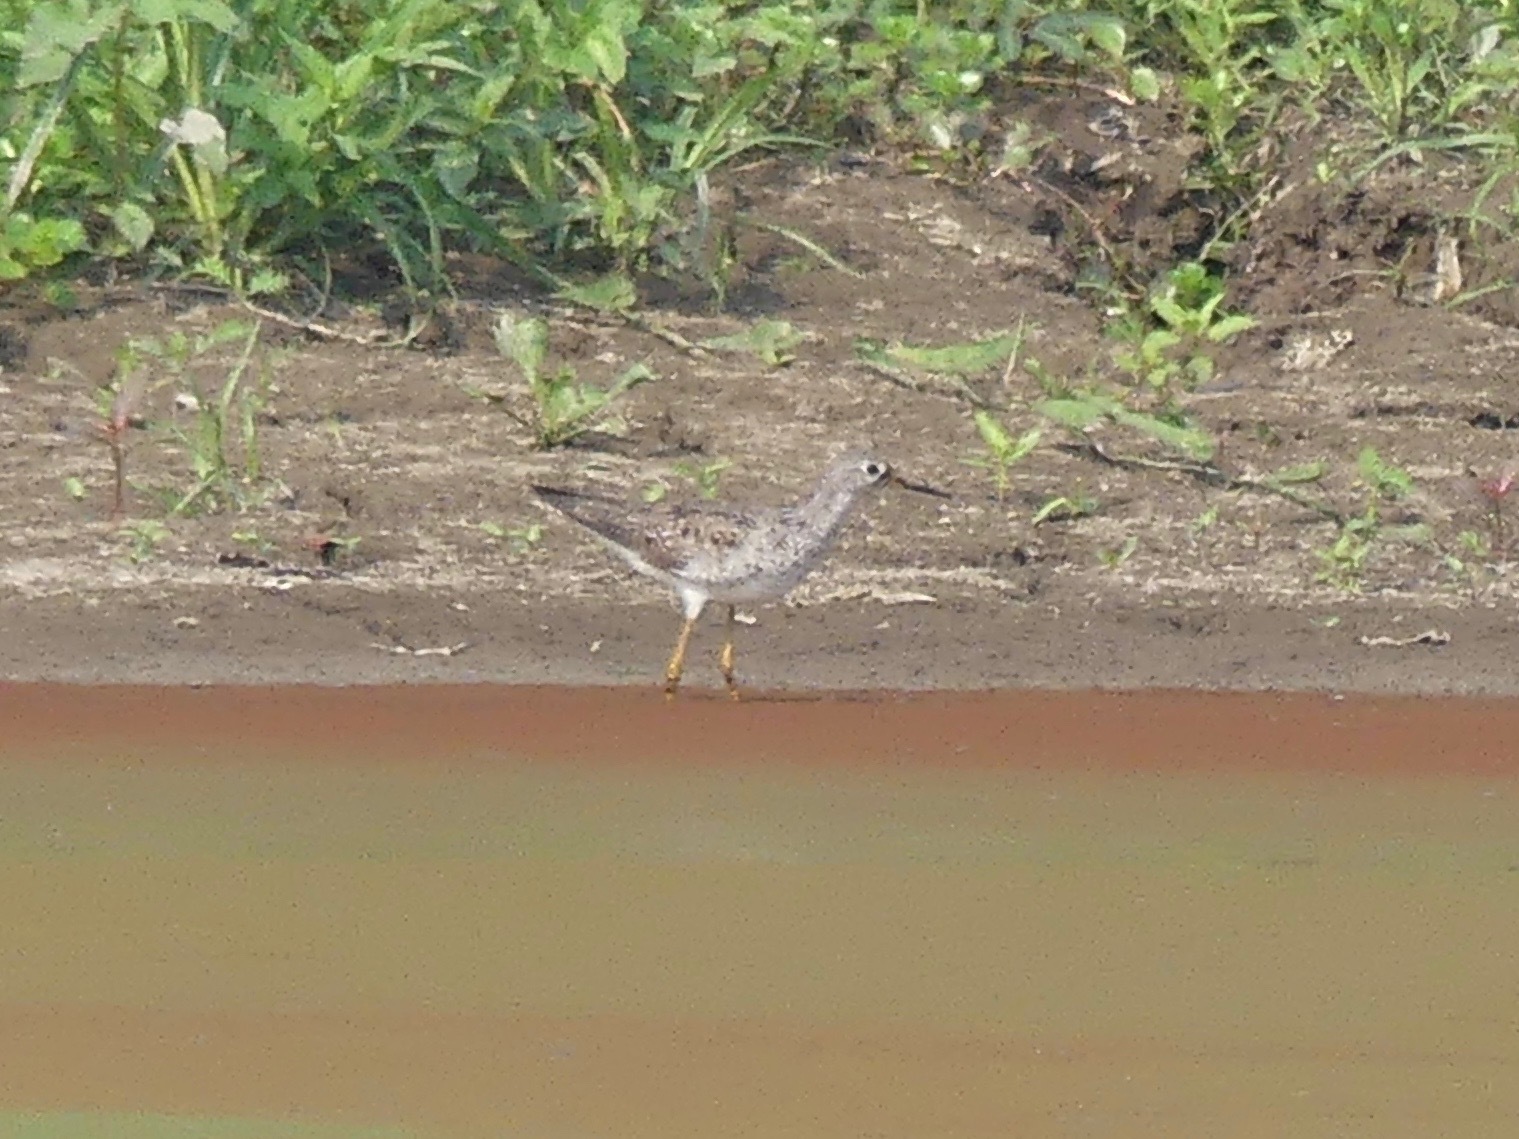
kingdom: Animalia
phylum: Chordata
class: Aves
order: Charadriiformes
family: Scolopacidae
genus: Tringa
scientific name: Tringa flavipes
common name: Lesser yellowlegs
